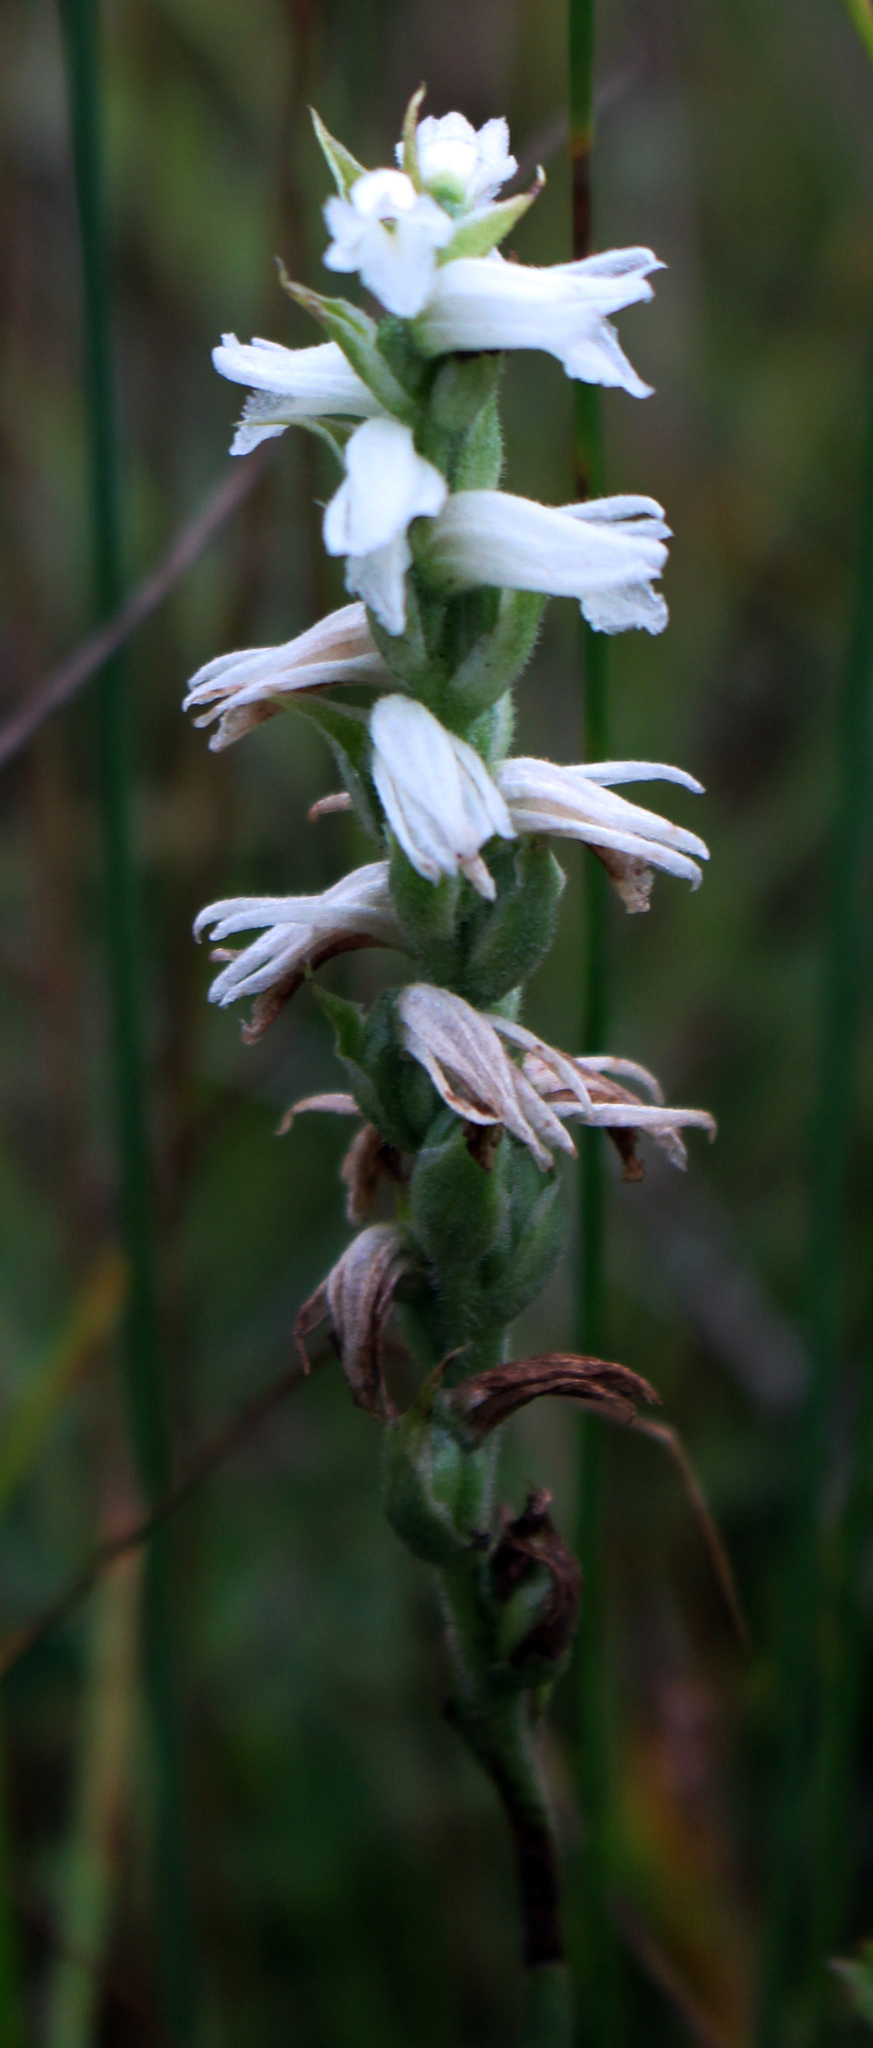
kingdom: Plantae
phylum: Tracheophyta
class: Liliopsida
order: Asparagales
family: Orchidaceae
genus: Spiranthes
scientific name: Spiranthes incurva
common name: Sphinx ladies'-tresses
